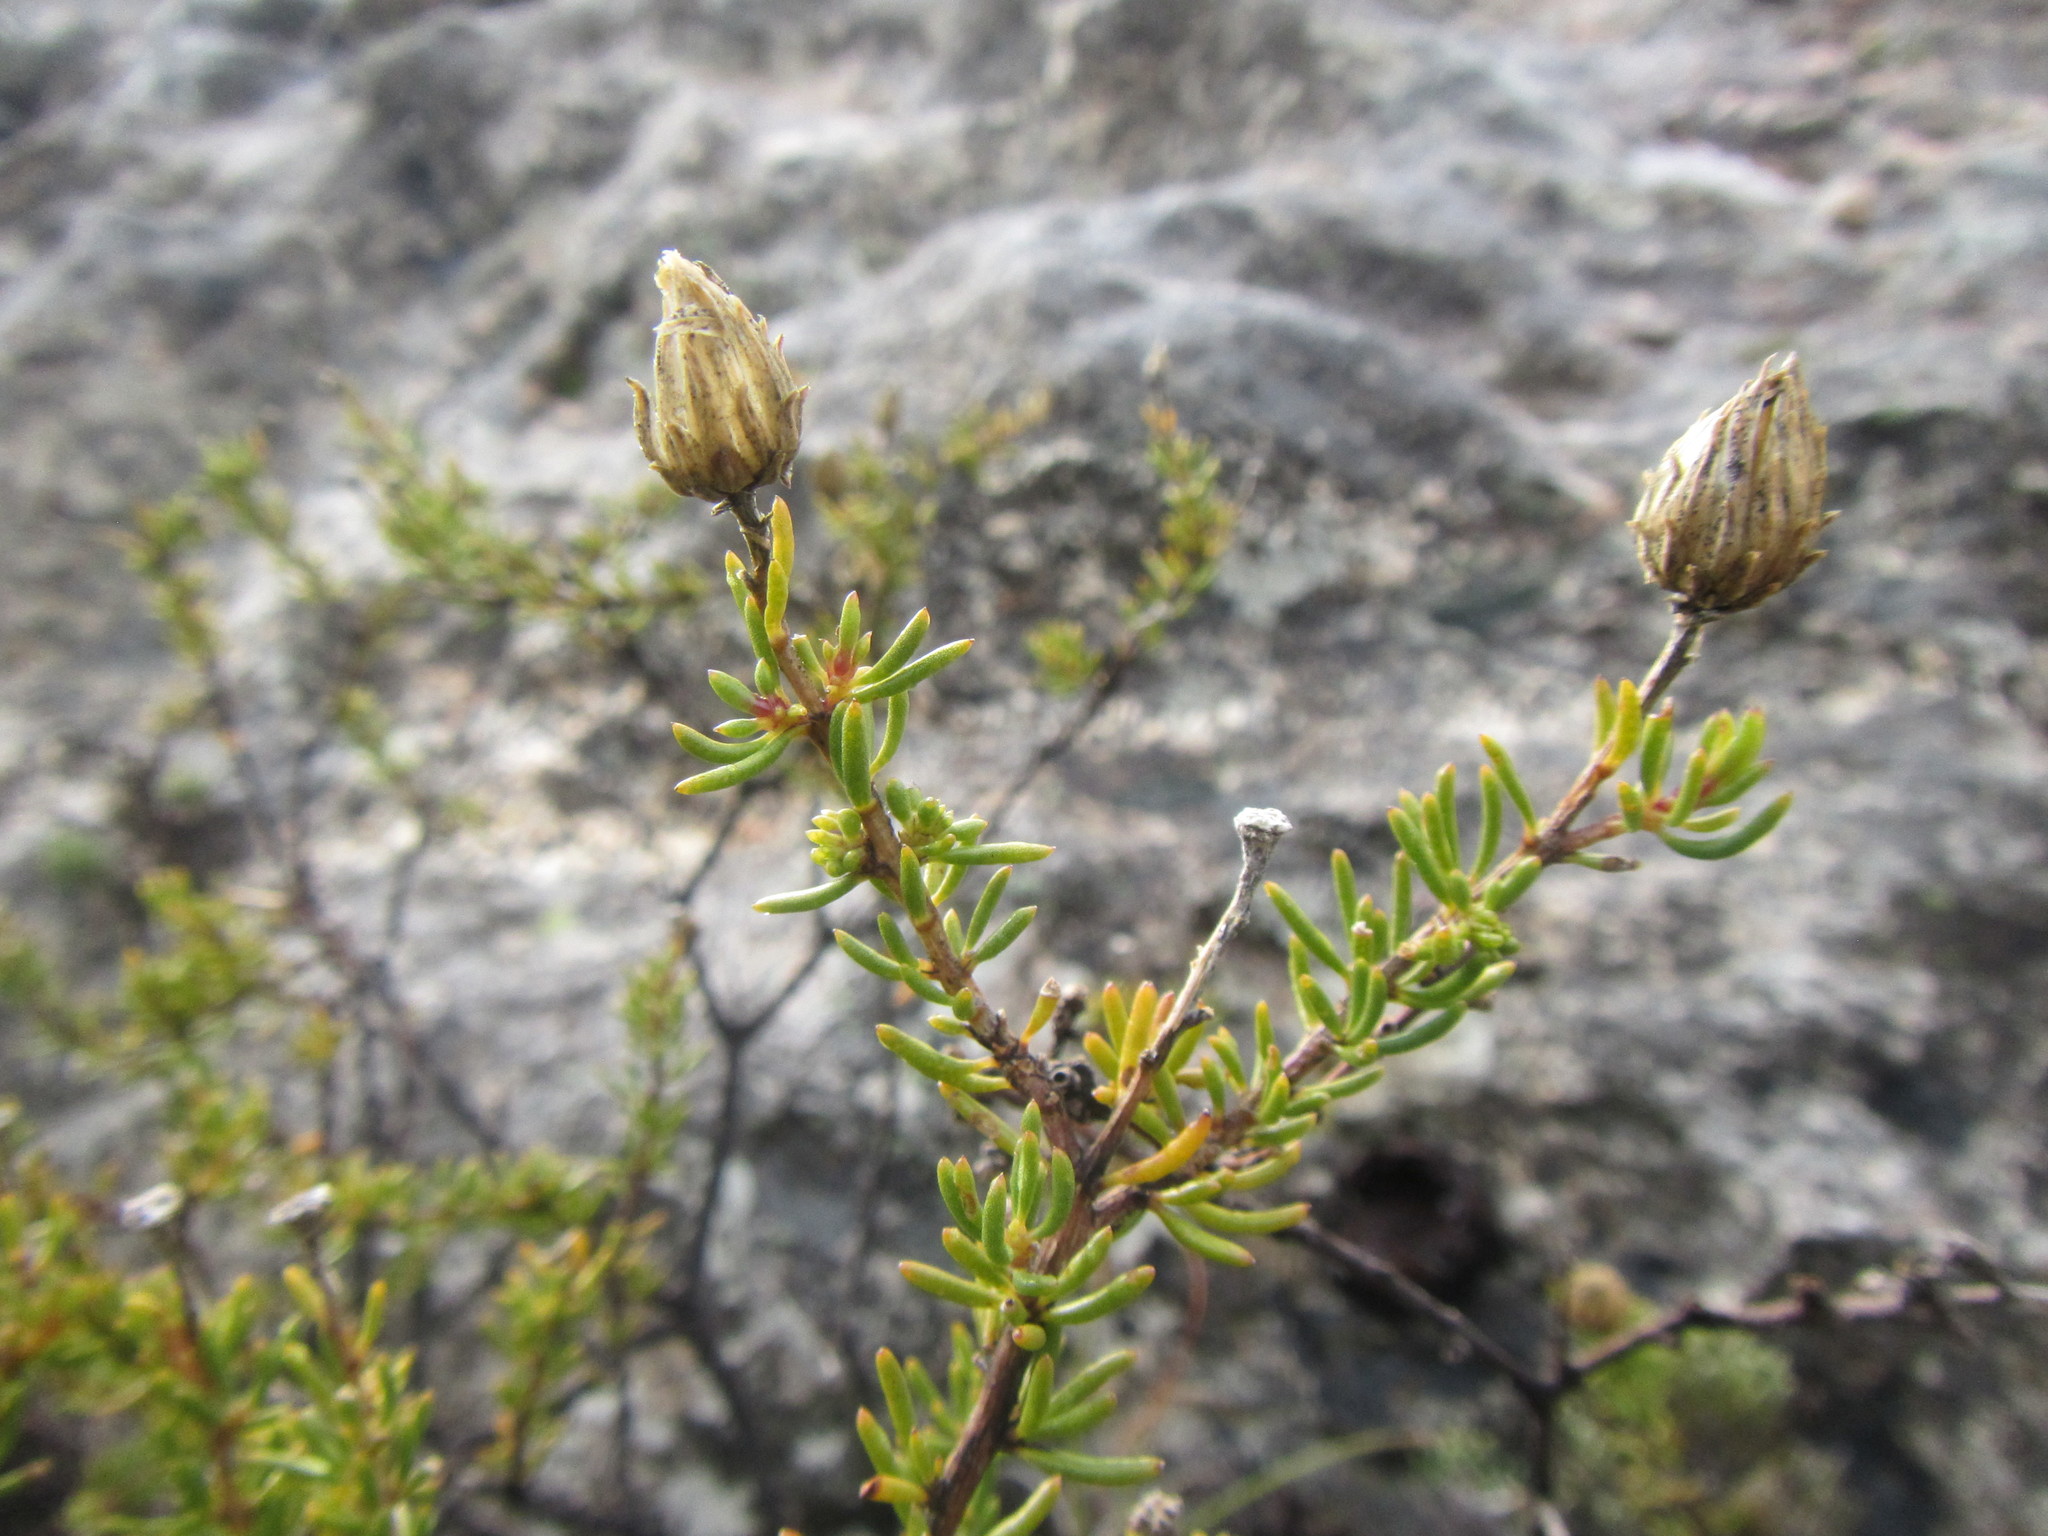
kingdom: Plantae
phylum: Tracheophyta
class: Magnoliopsida
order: Asterales
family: Asteraceae
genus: Pteronia
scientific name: Pteronia cederbergensis
